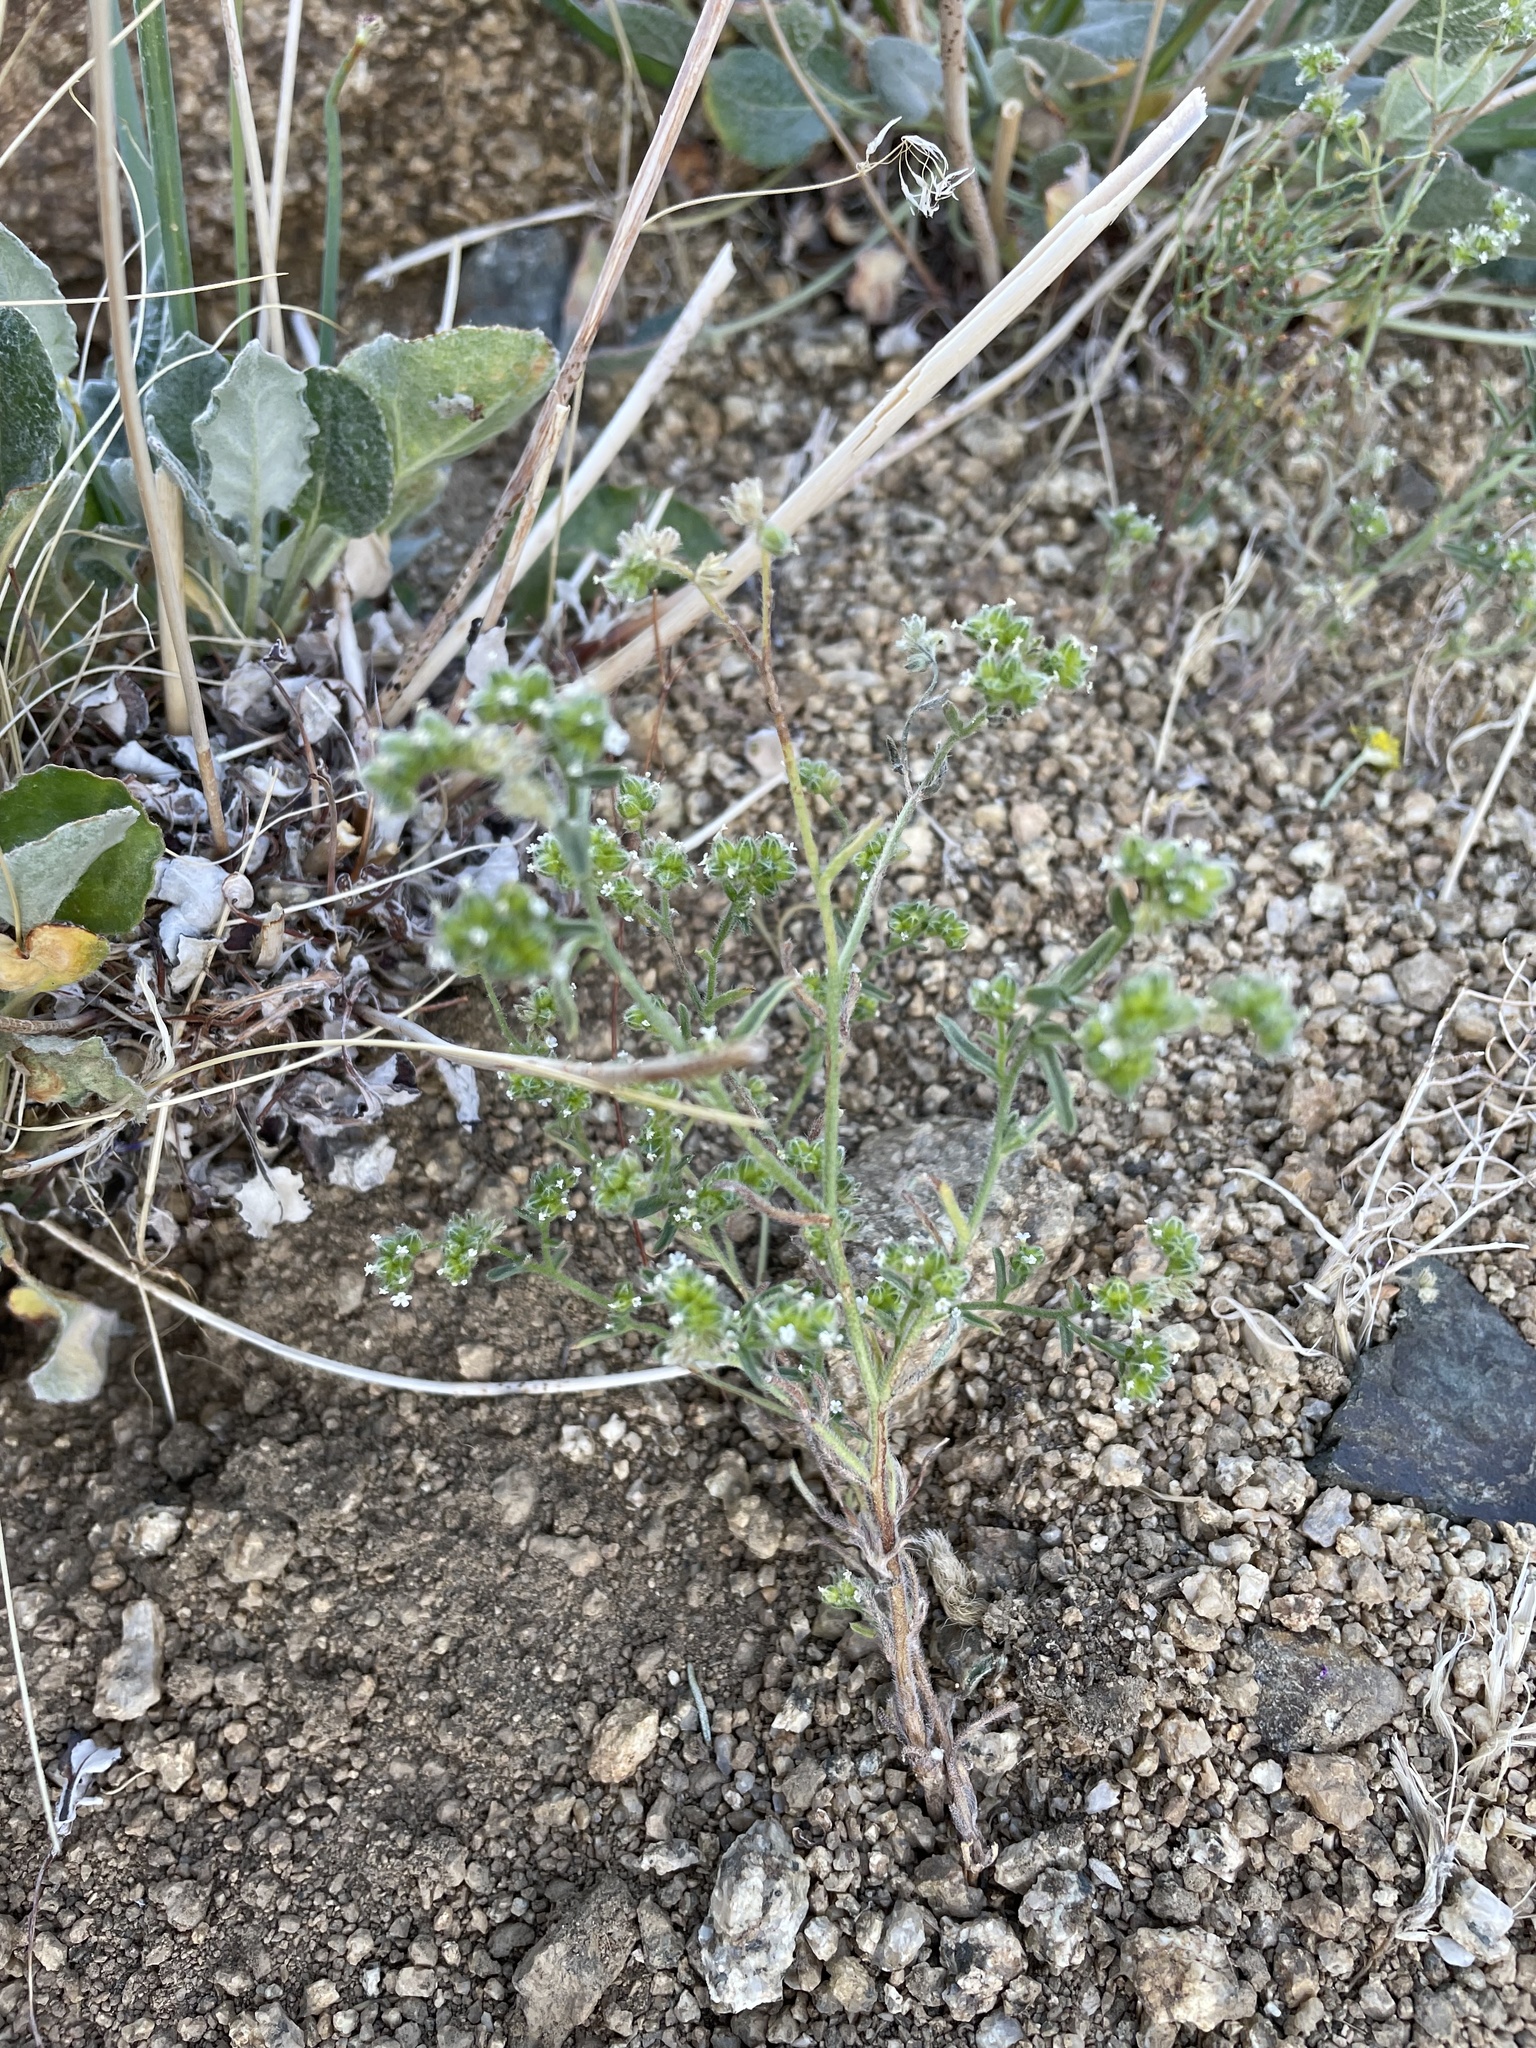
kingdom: Plantae
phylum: Tracheophyta
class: Magnoliopsida
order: Boraginales
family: Boraginaceae
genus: Cryptantha
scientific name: Cryptantha pterocarya
